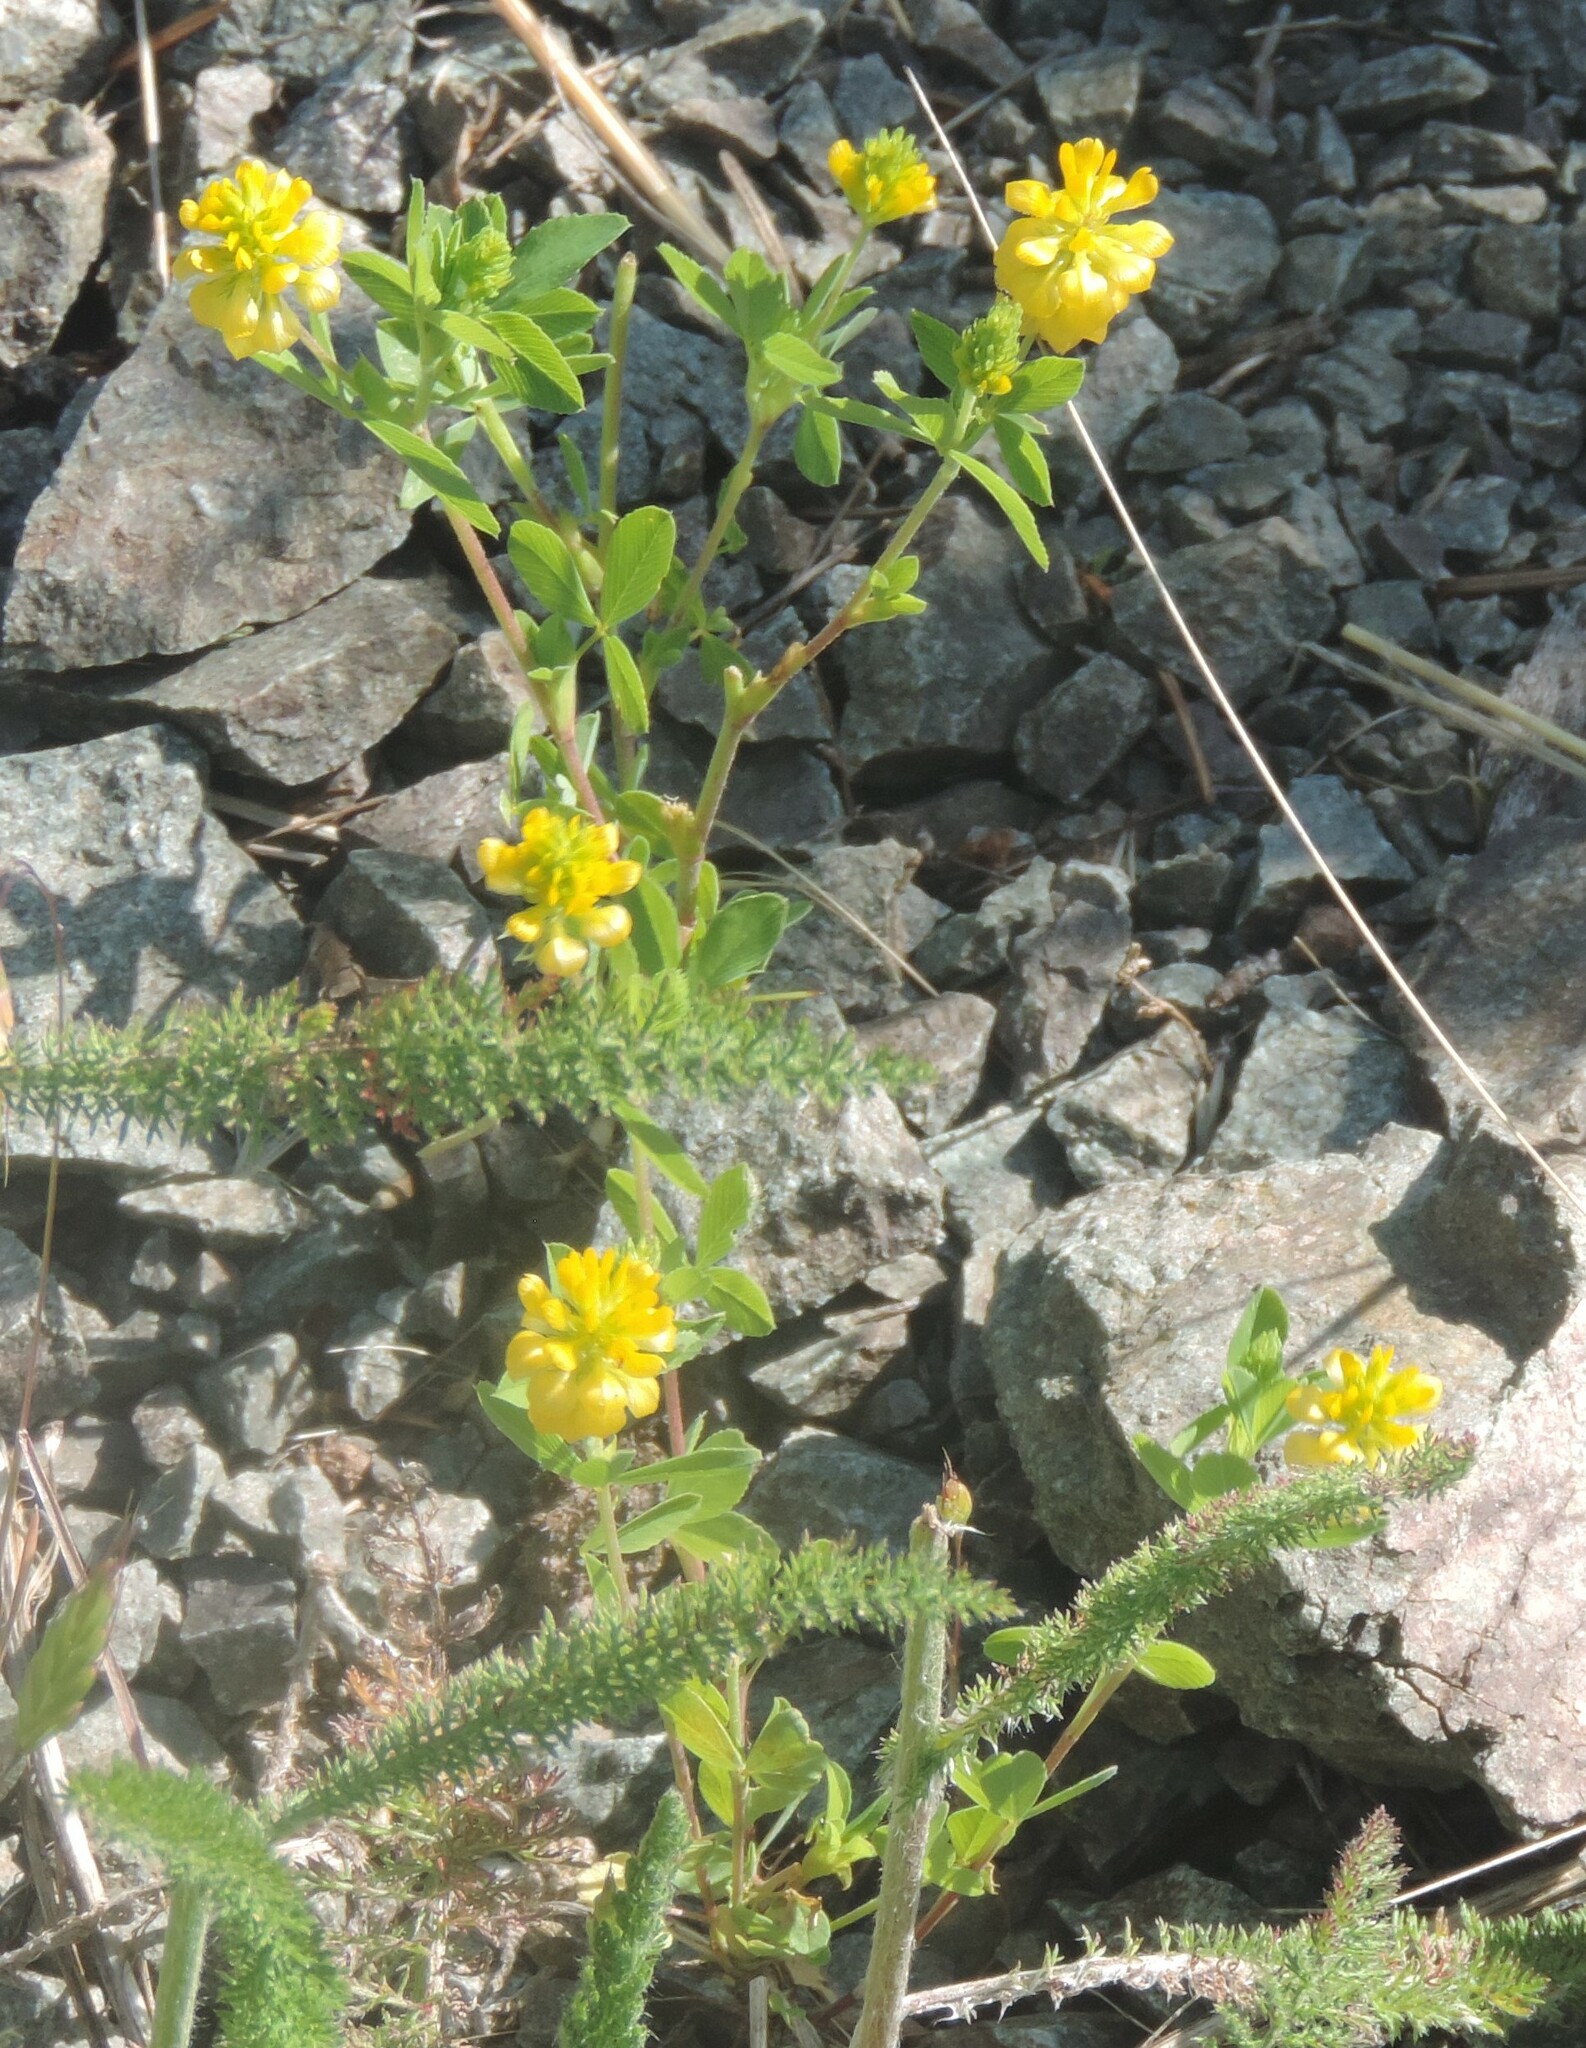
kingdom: Plantae
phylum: Tracheophyta
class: Magnoliopsida
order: Fabales
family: Fabaceae
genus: Trifolium
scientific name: Trifolium aureum
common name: Golden clover
